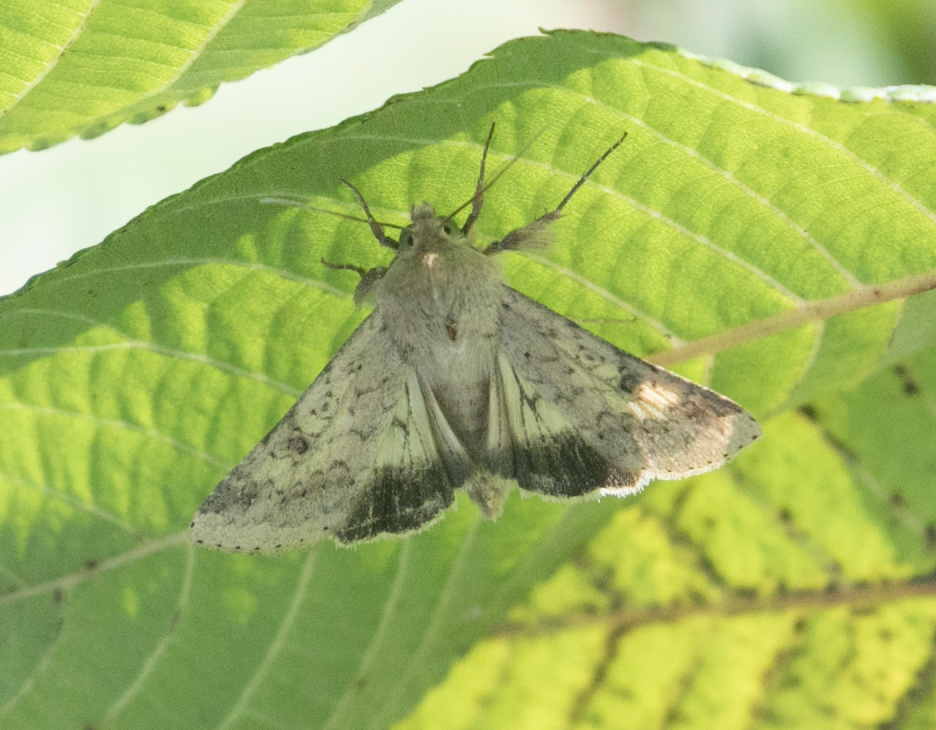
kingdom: Animalia
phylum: Arthropoda
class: Insecta
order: Lepidoptera
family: Noctuidae
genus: Helicoverpa
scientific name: Helicoverpa armigera
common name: Cotton bollworm
